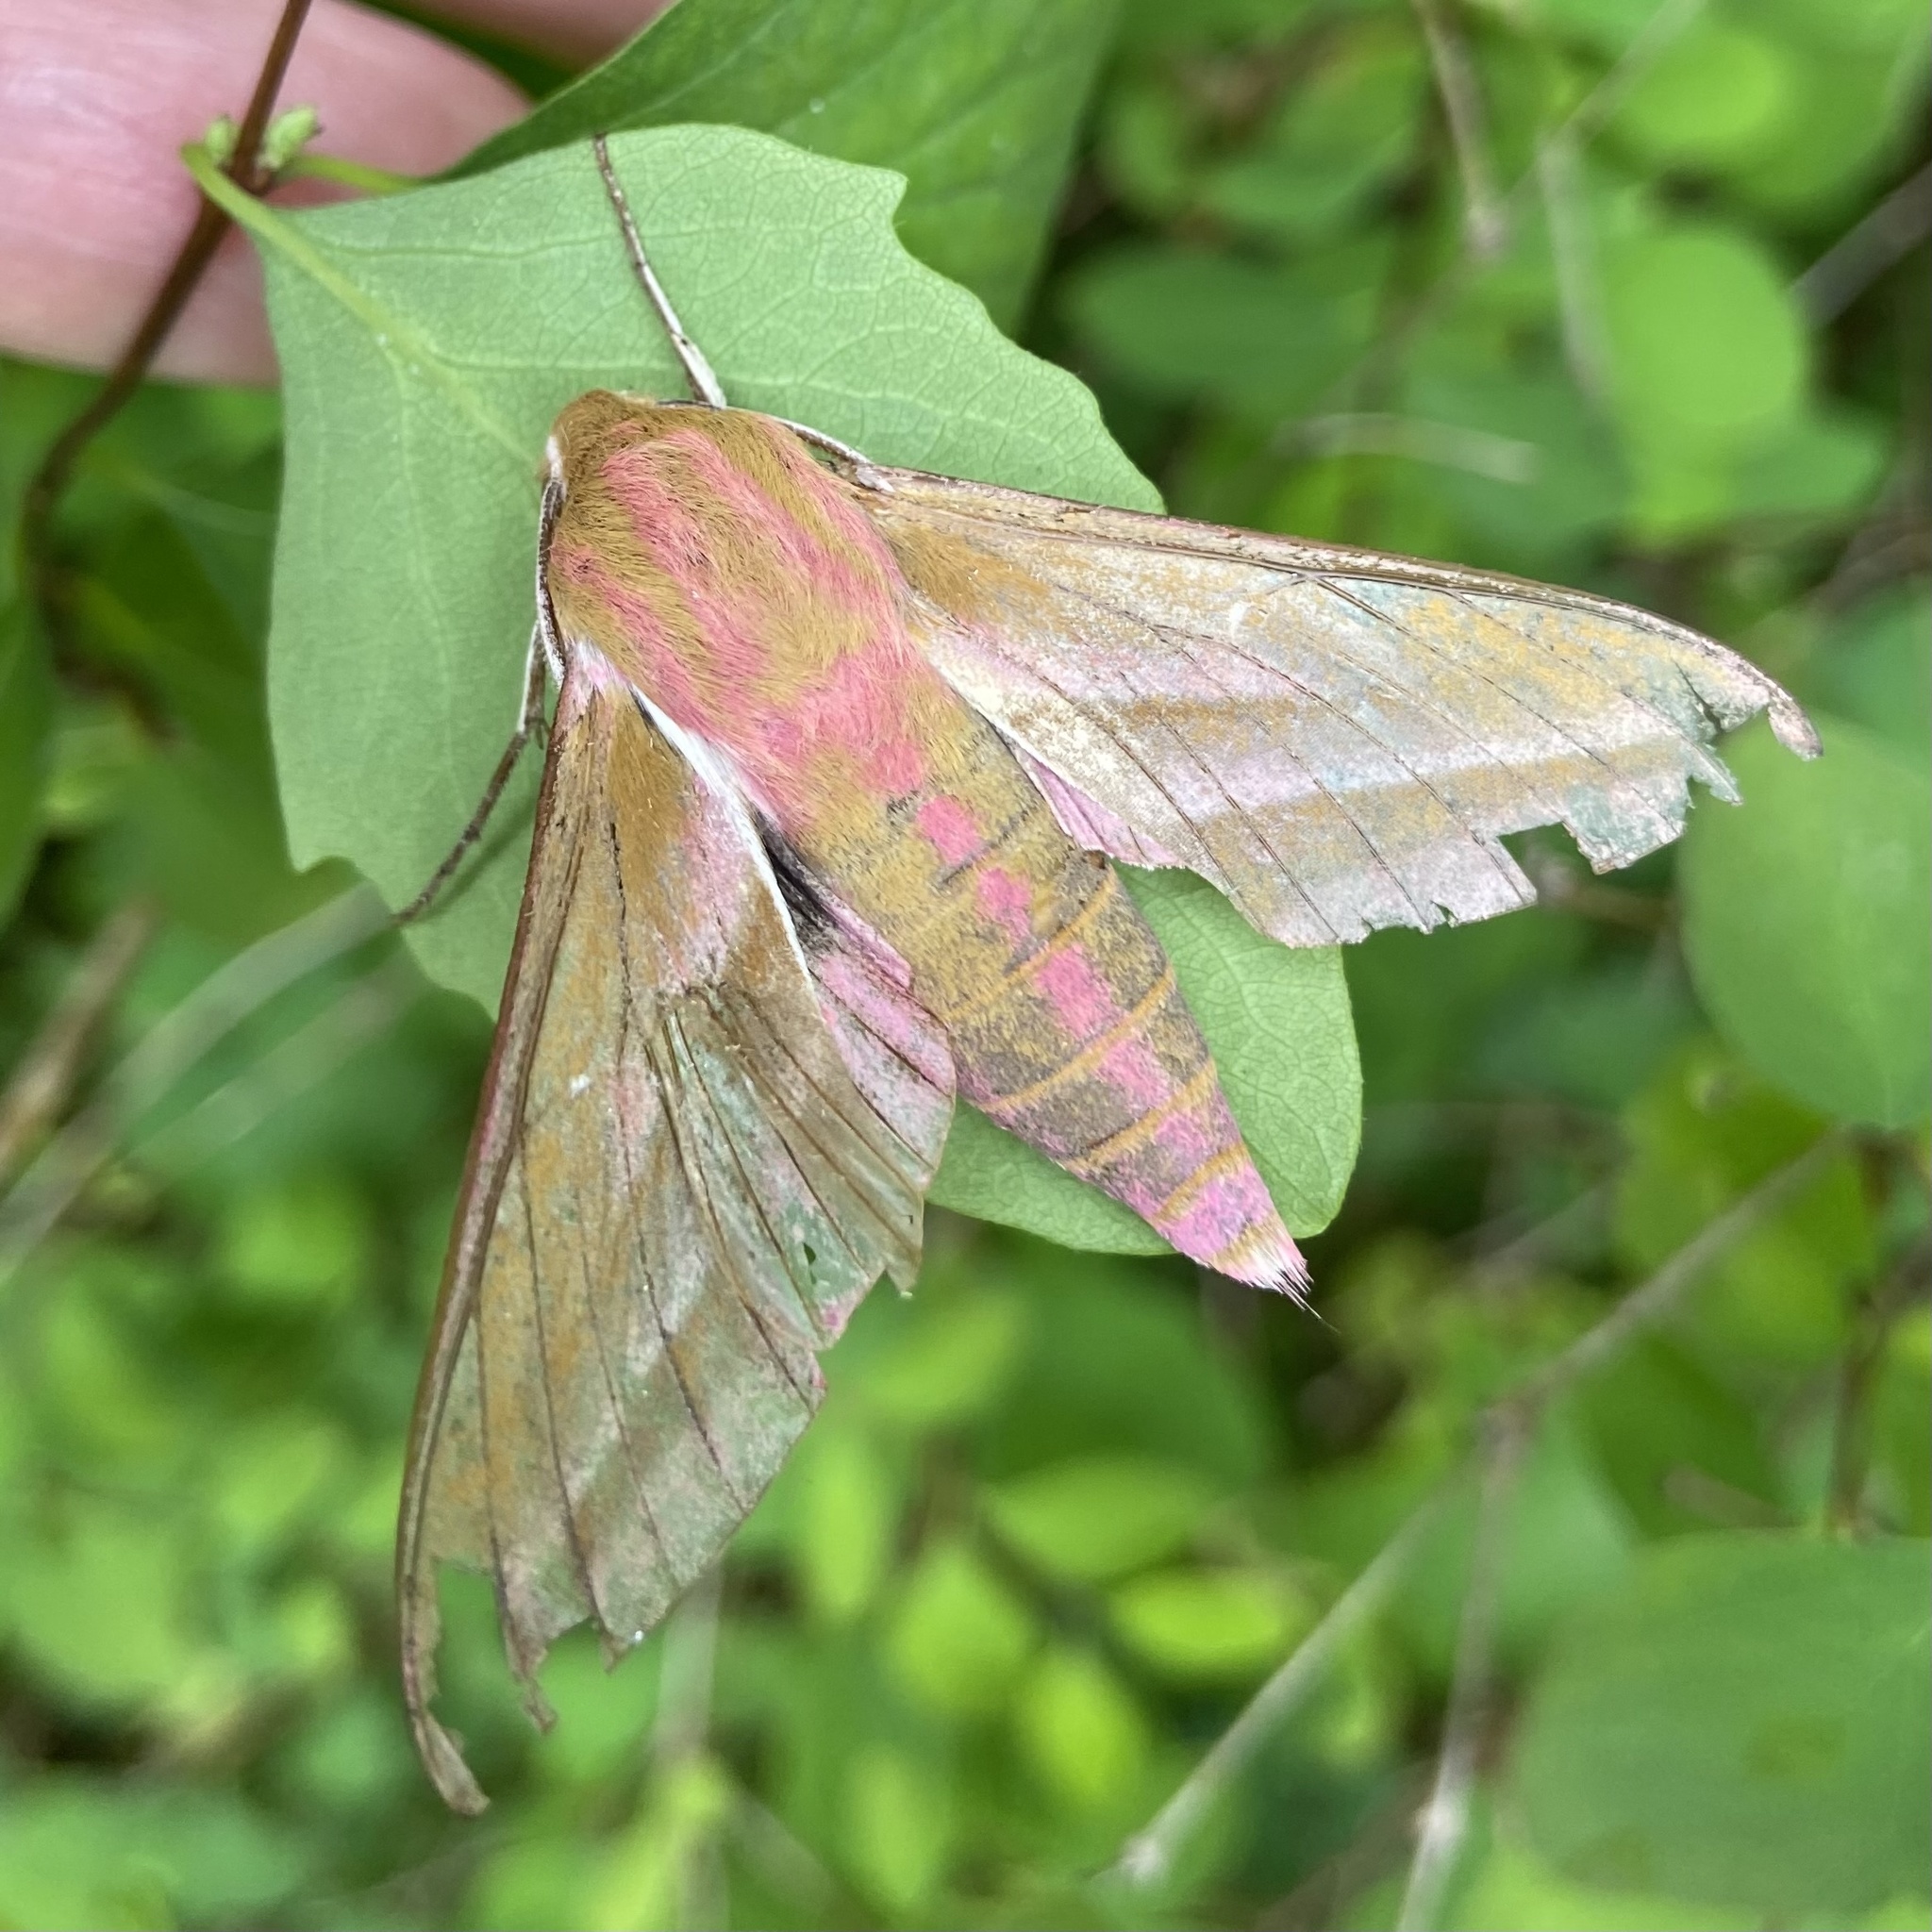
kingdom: Animalia
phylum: Arthropoda
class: Insecta
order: Lepidoptera
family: Sphingidae
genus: Deilephila
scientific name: Deilephila elpenor
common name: Elephant hawk-moth
